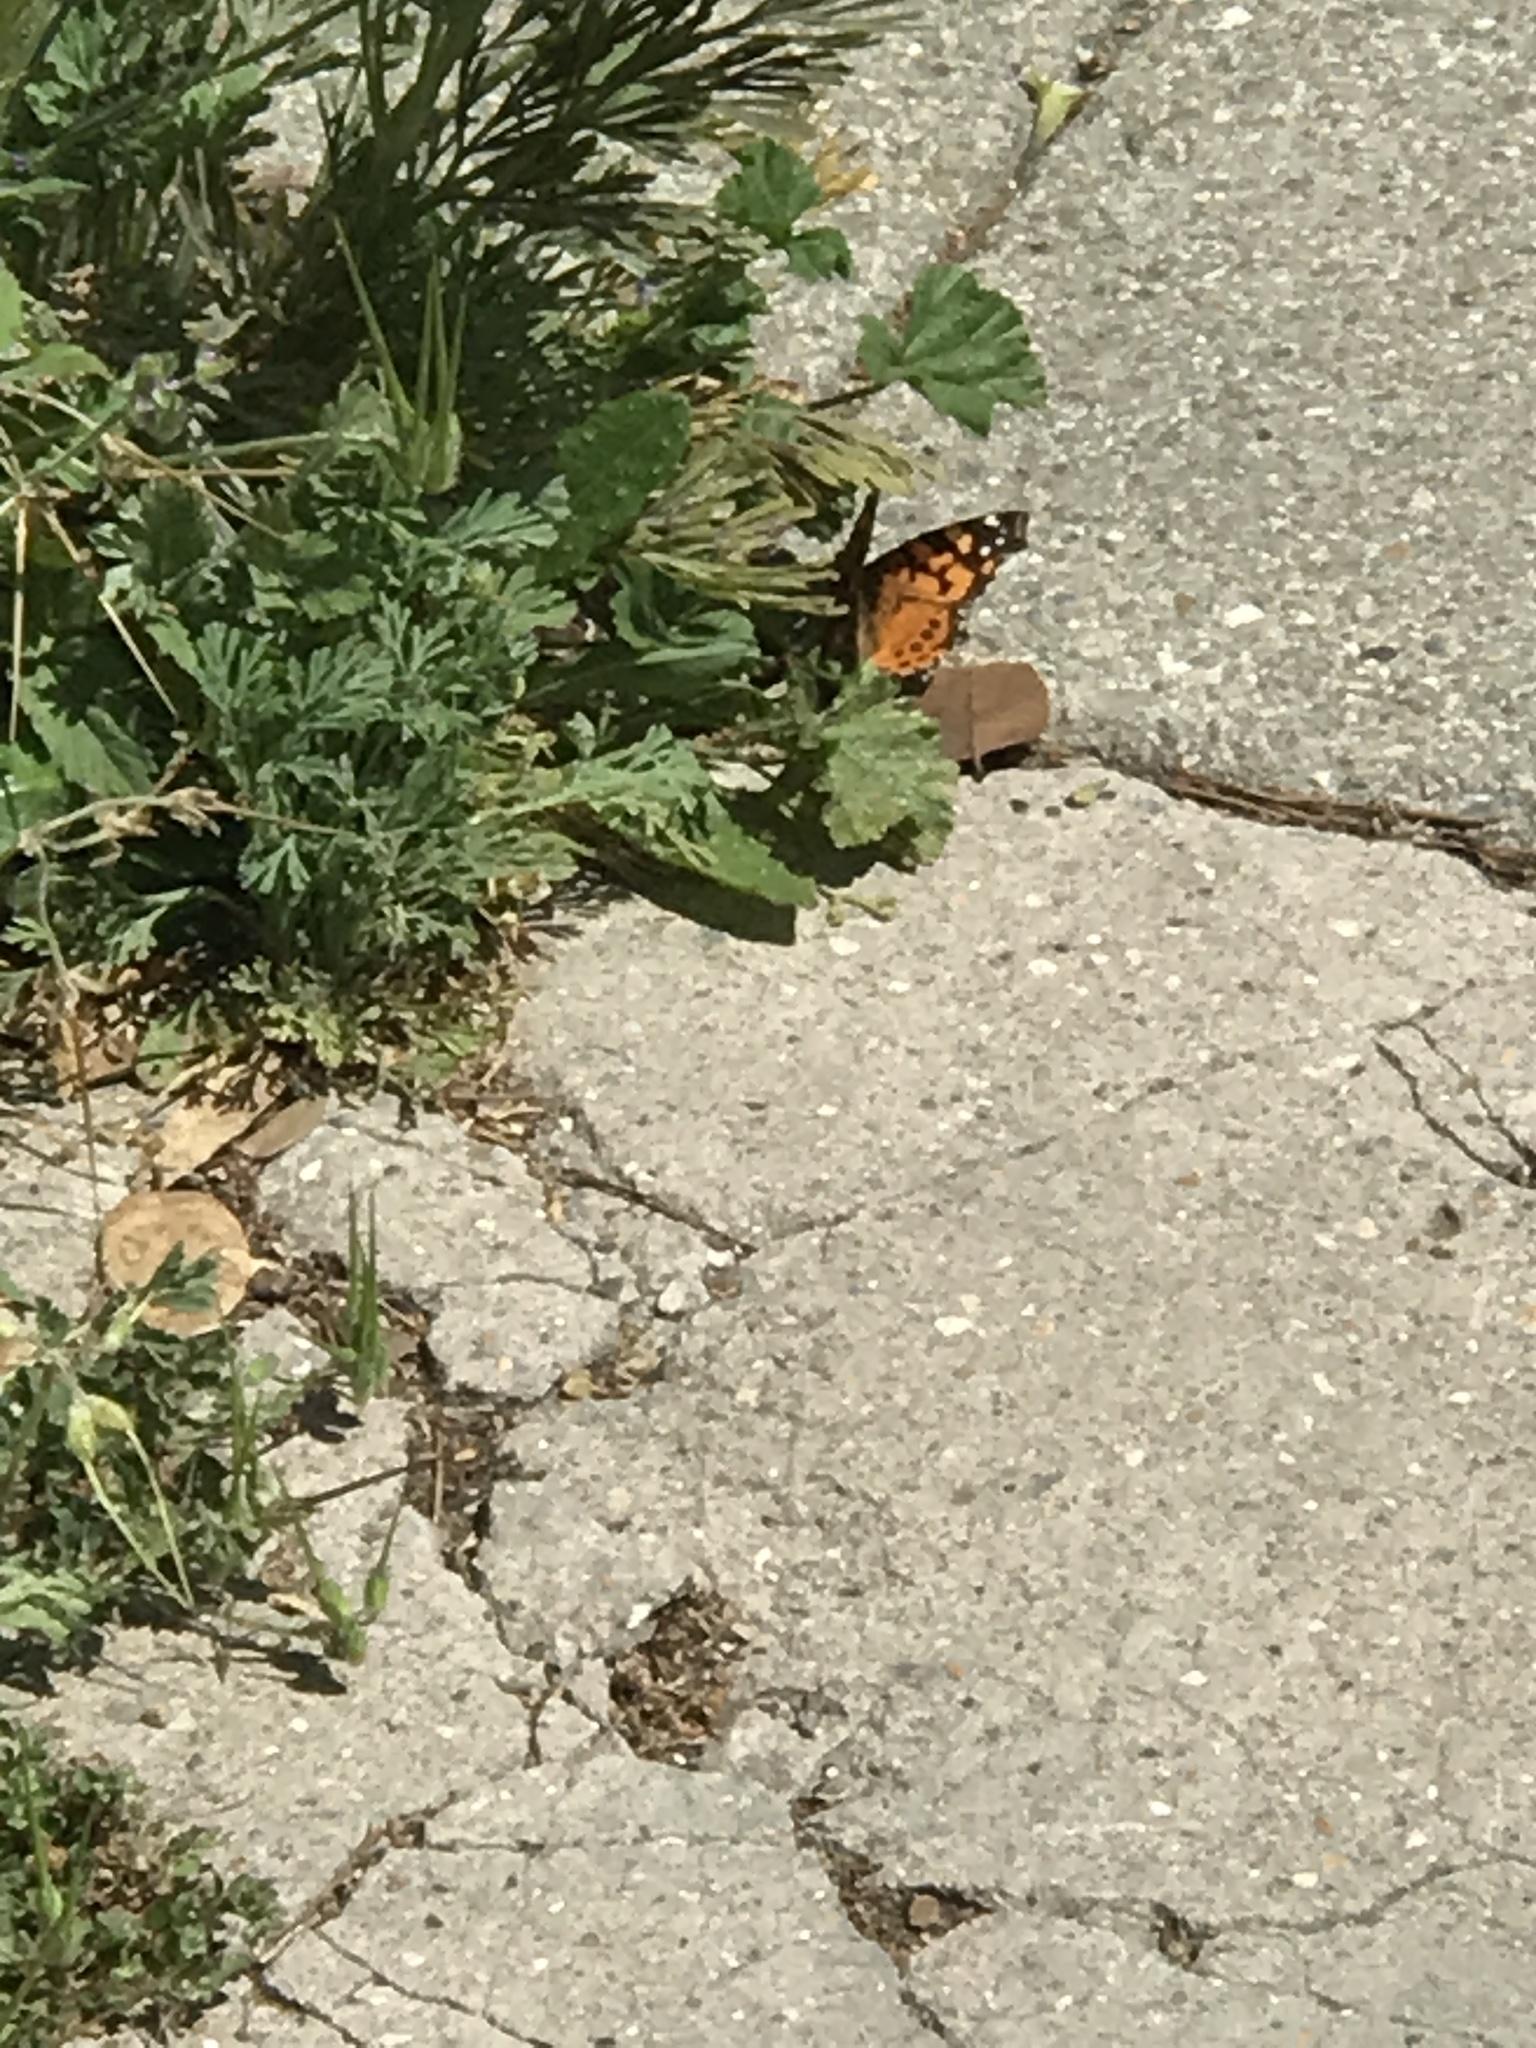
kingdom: Animalia
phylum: Arthropoda
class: Insecta
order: Lepidoptera
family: Nymphalidae
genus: Vanessa
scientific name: Vanessa annabella
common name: West coast lady
